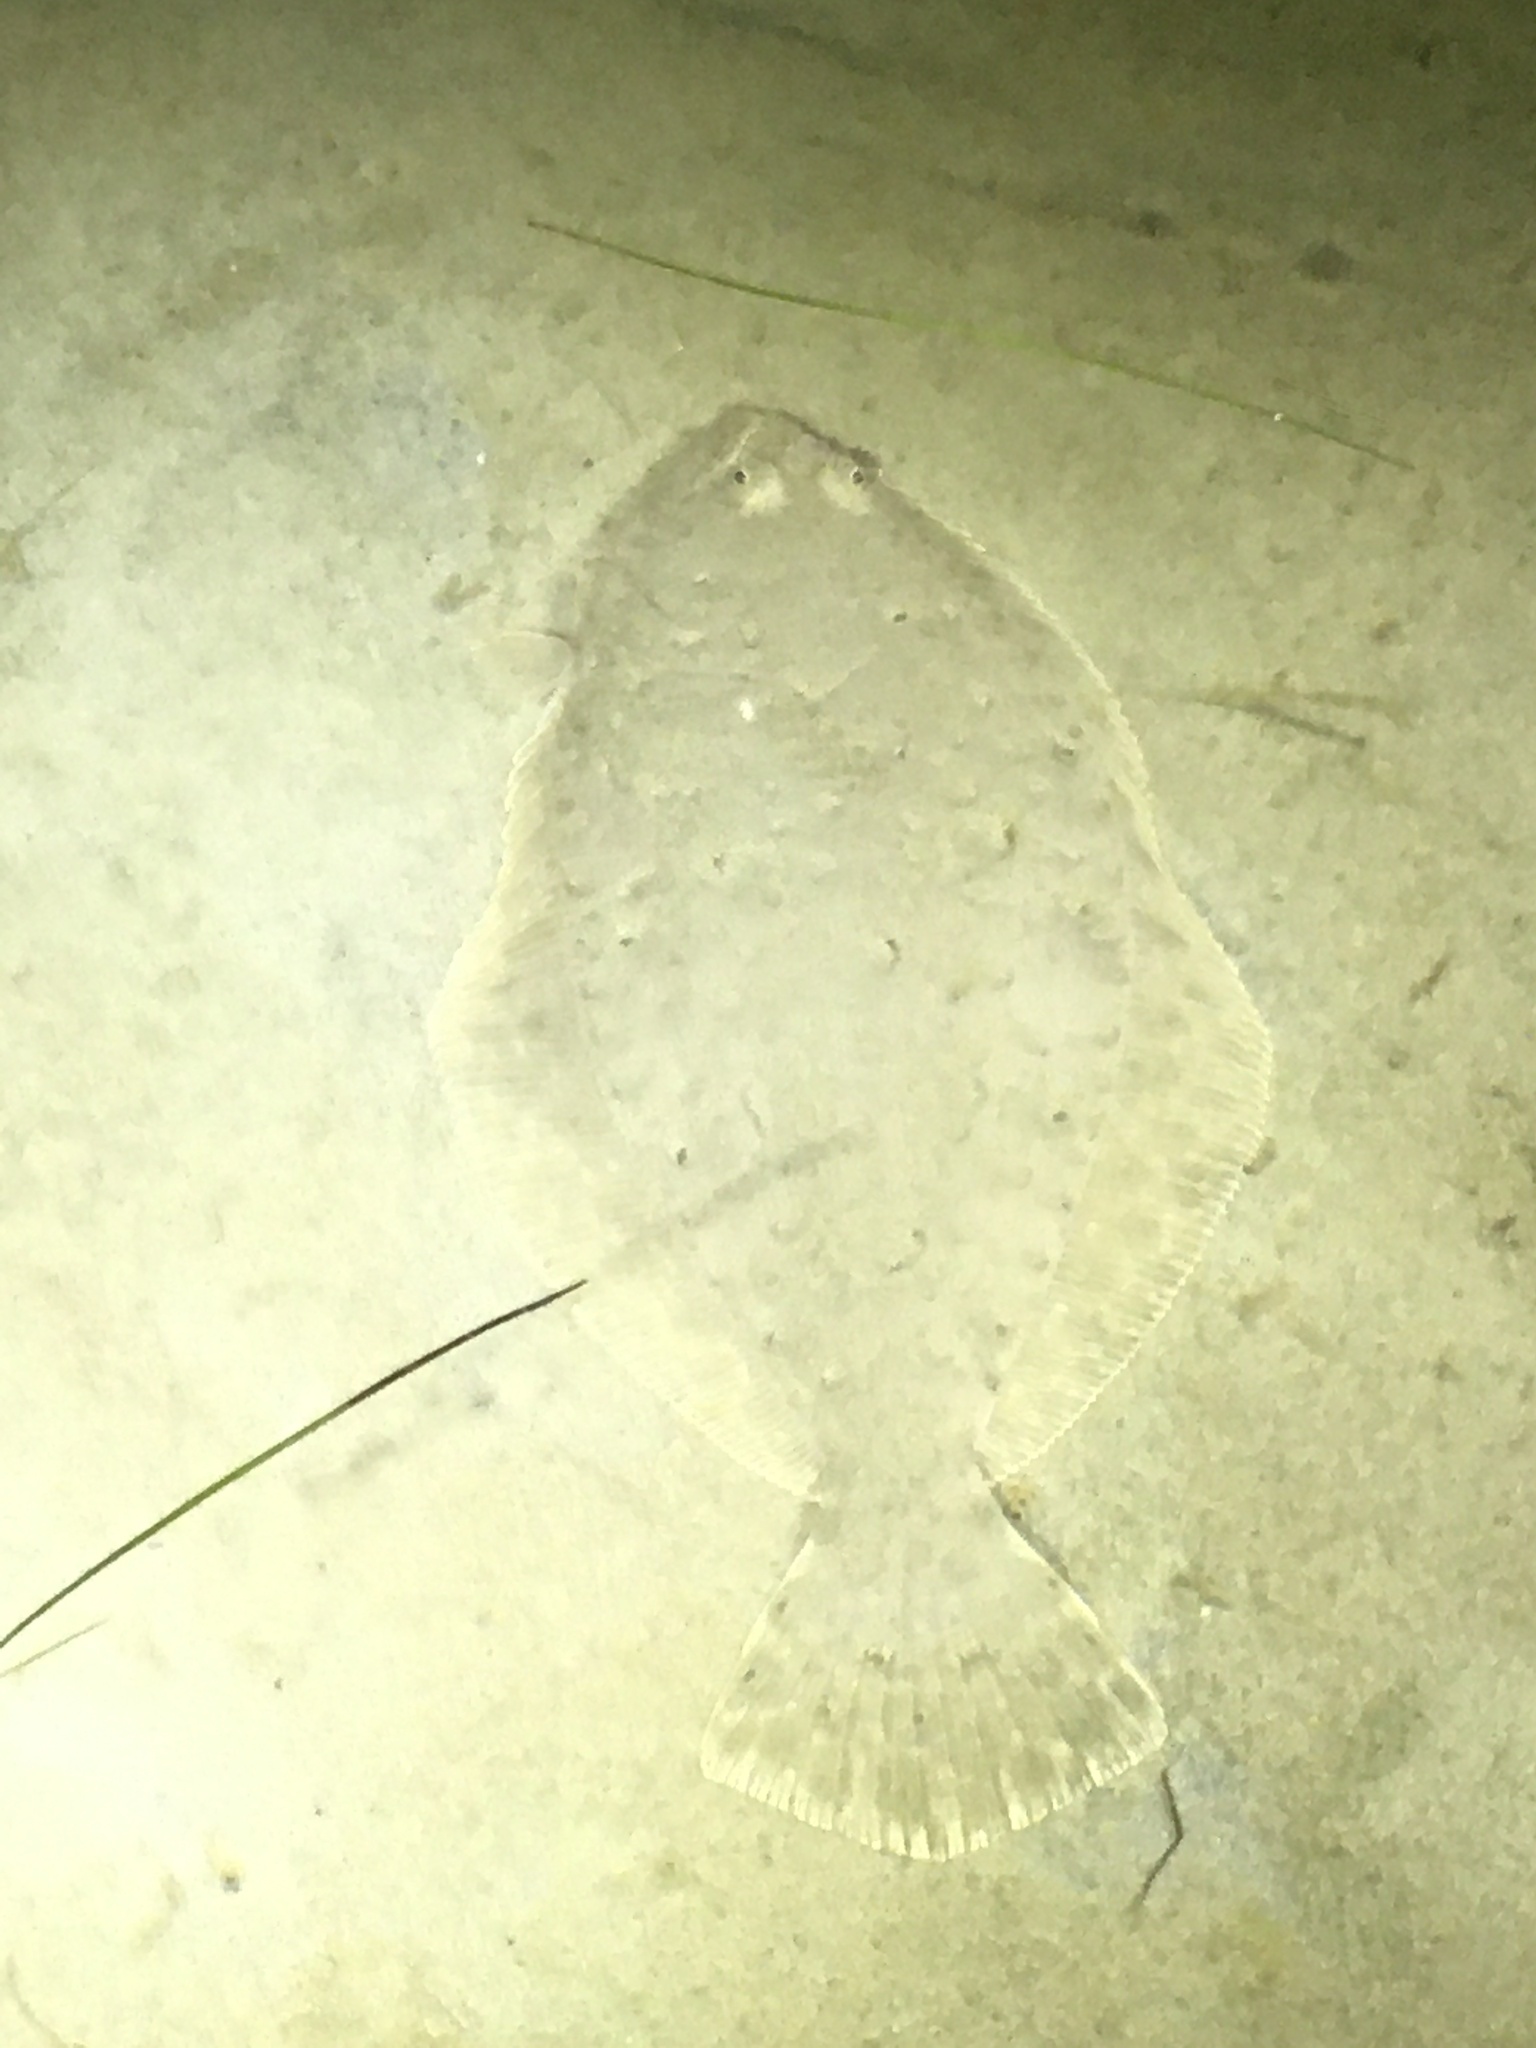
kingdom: Animalia
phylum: Chordata
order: Pleuronectiformes
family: Paralichthyidae
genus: Paralichthys
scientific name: Paralichthys dentatus
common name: Summer flounder
